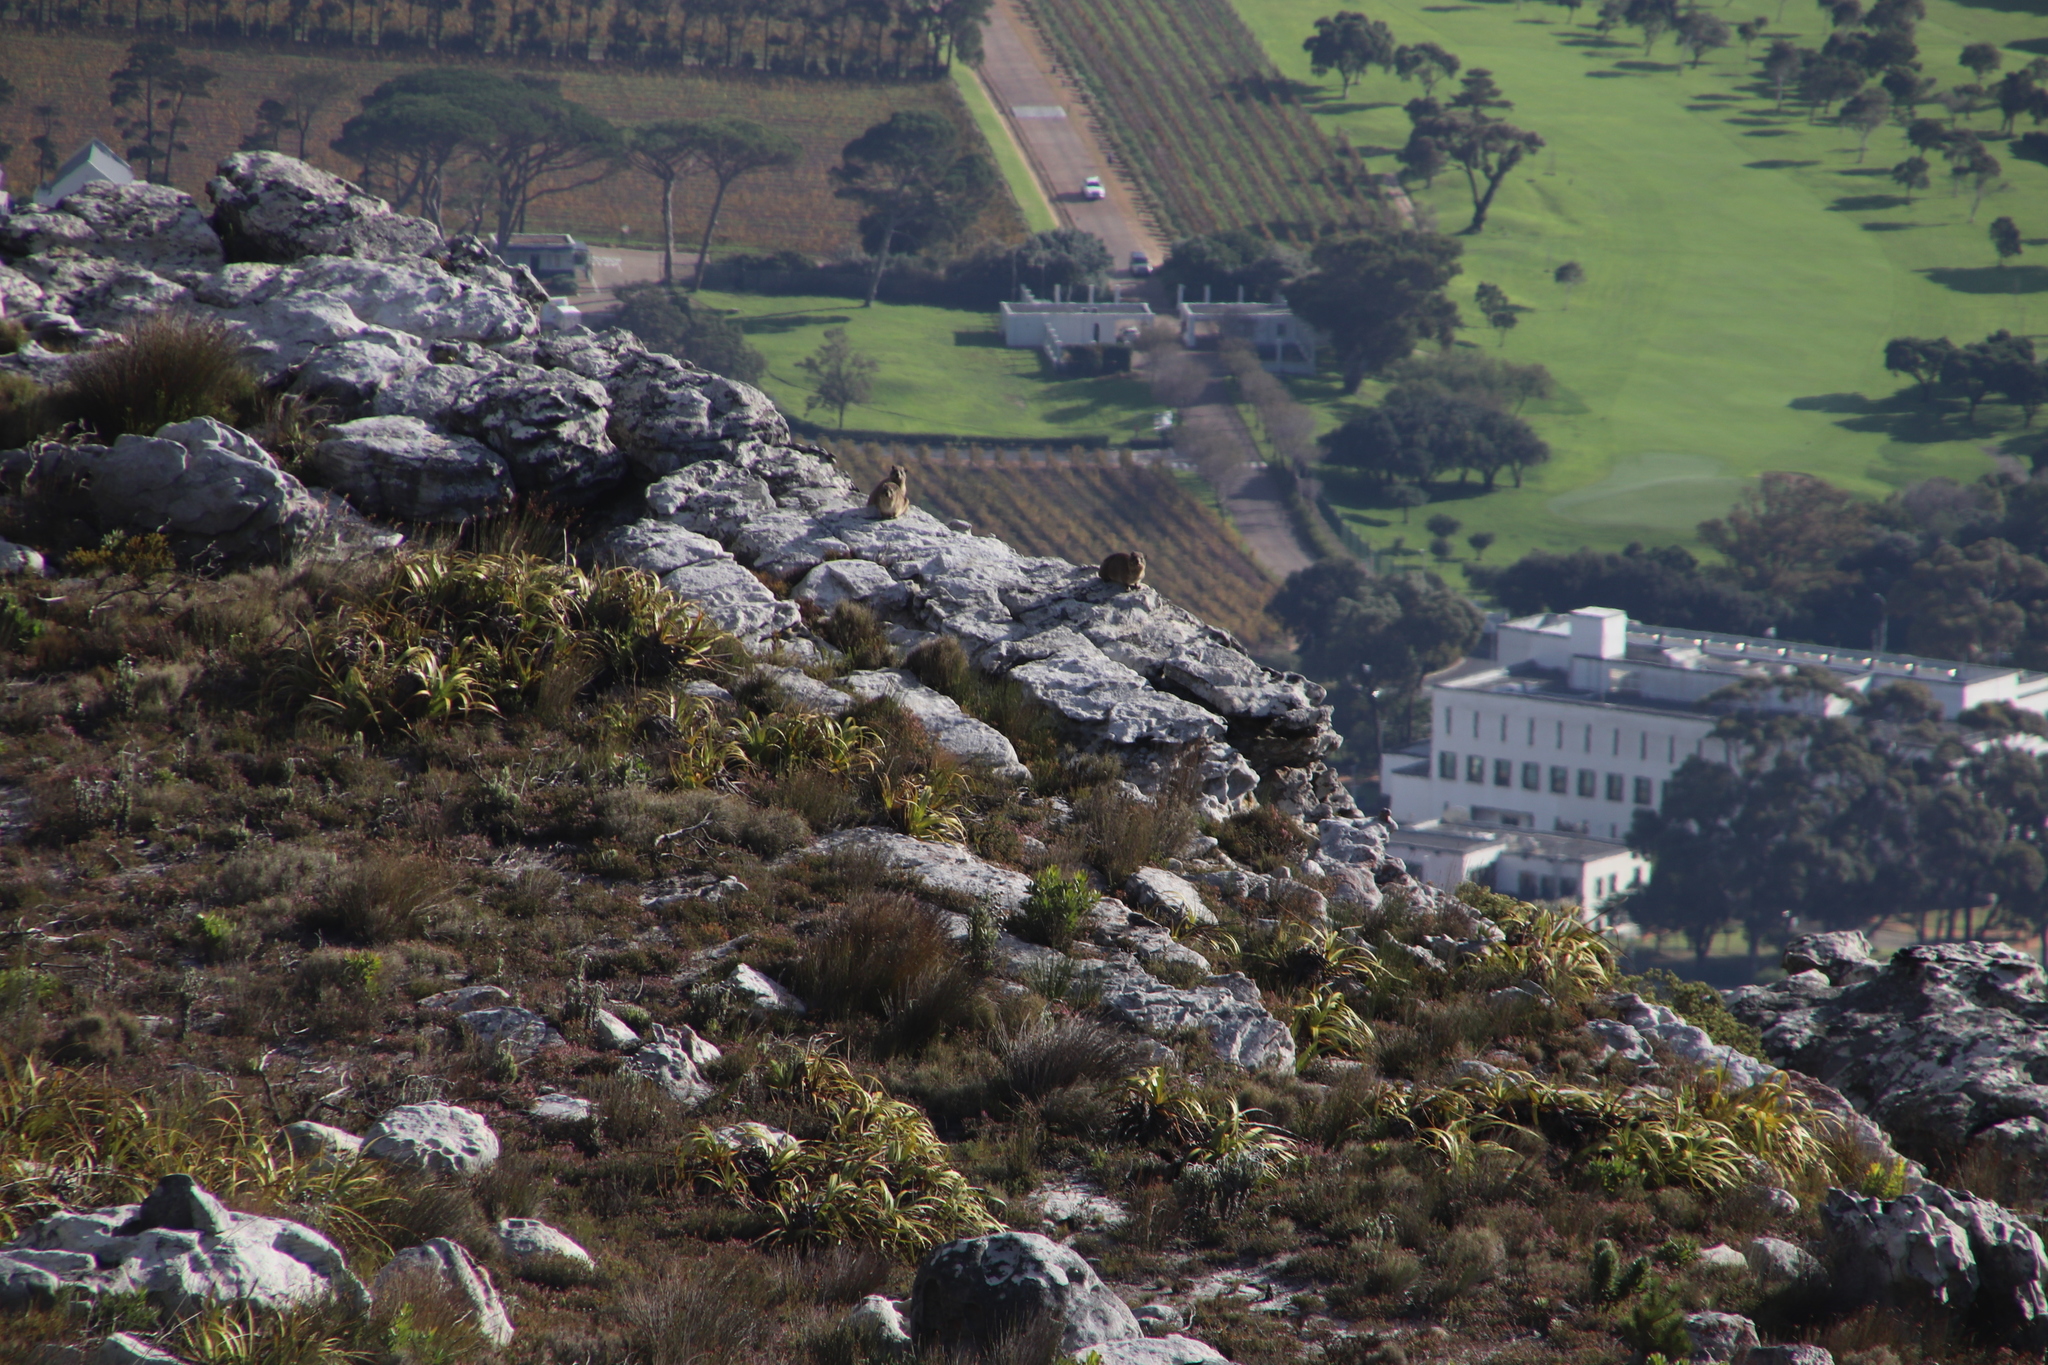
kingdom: Animalia
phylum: Chordata
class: Mammalia
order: Hyracoidea
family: Procaviidae
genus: Procavia
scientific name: Procavia capensis
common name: Rock hyrax
